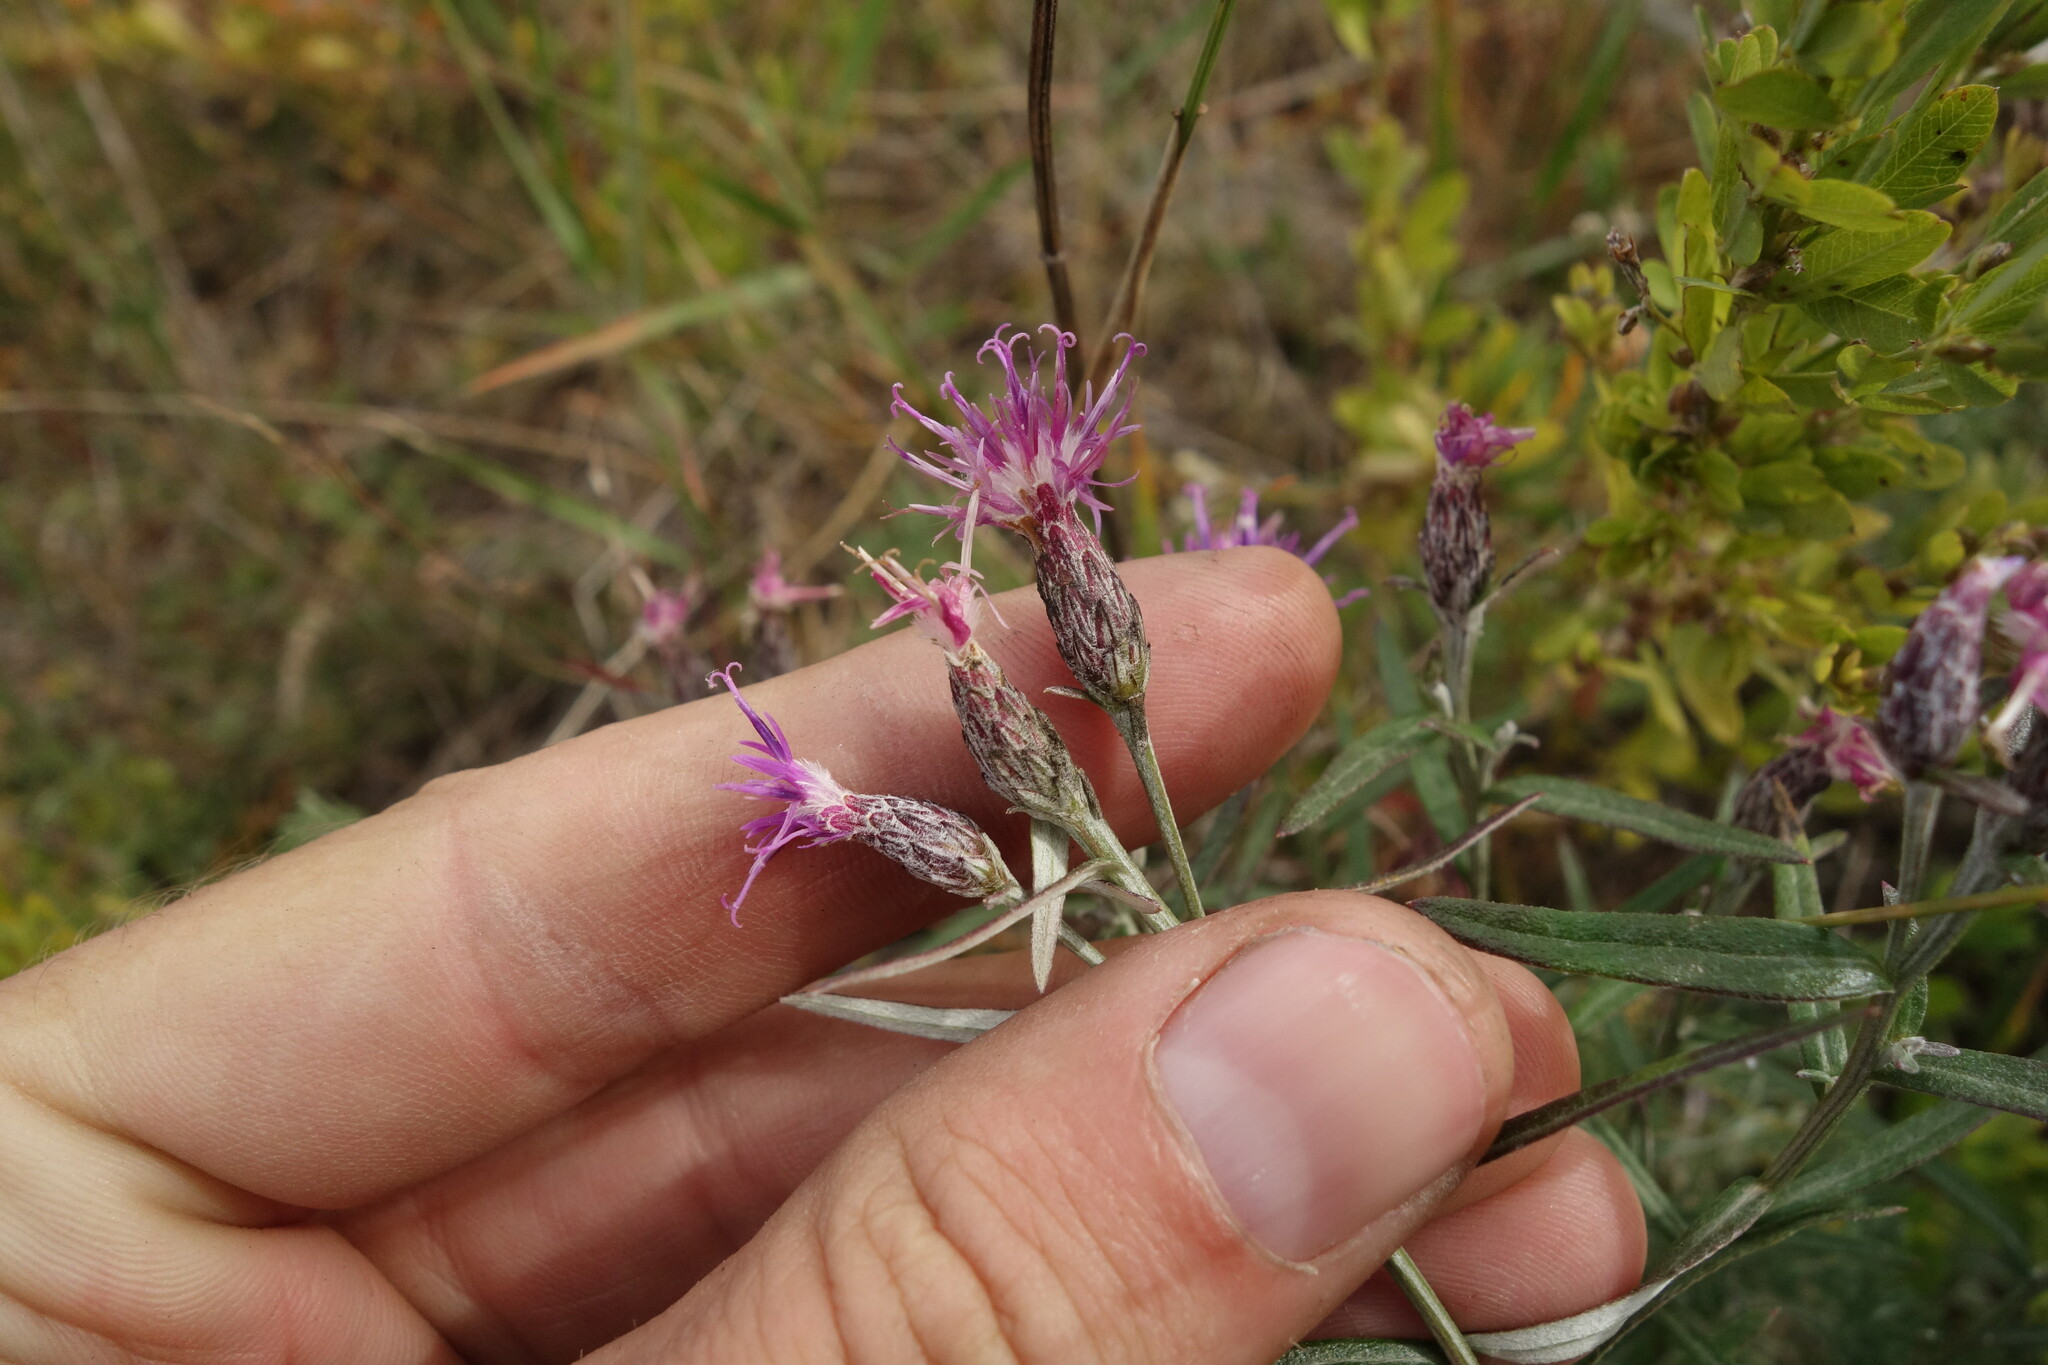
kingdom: Plantae
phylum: Tracheophyta
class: Magnoliopsida
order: Asterales
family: Asteraceae
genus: Saussurea
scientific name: Saussurea salicifolia
